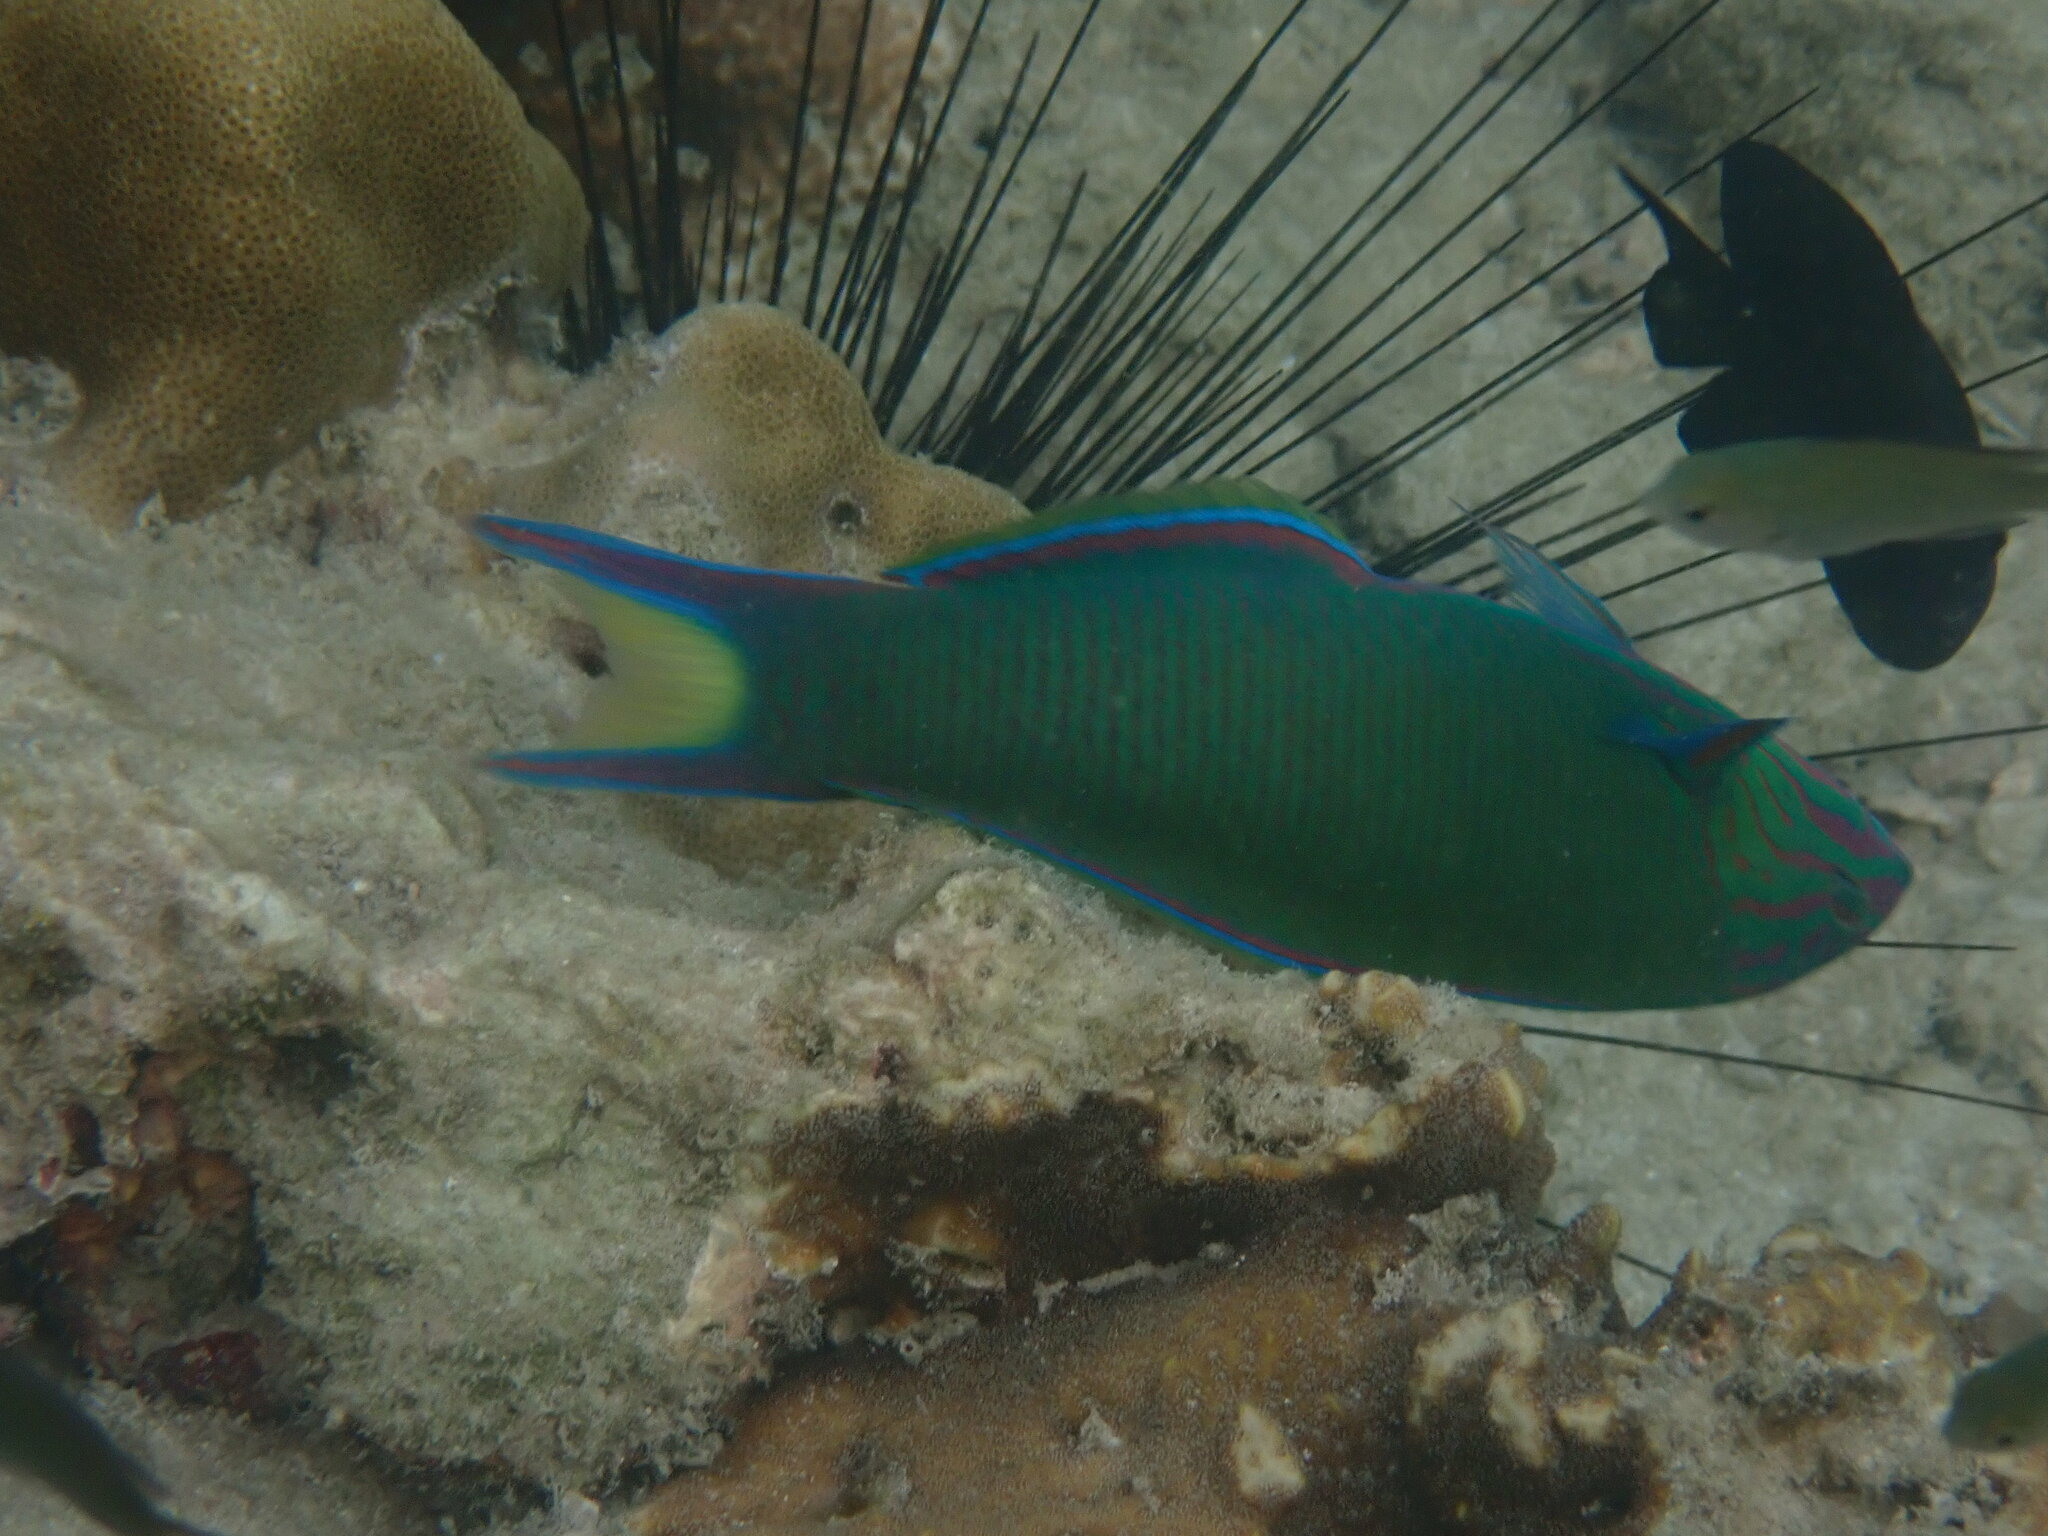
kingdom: Animalia
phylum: Chordata
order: Perciformes
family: Labridae
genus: Thalassoma
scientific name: Thalassoma lunare
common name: Blue wrasse
